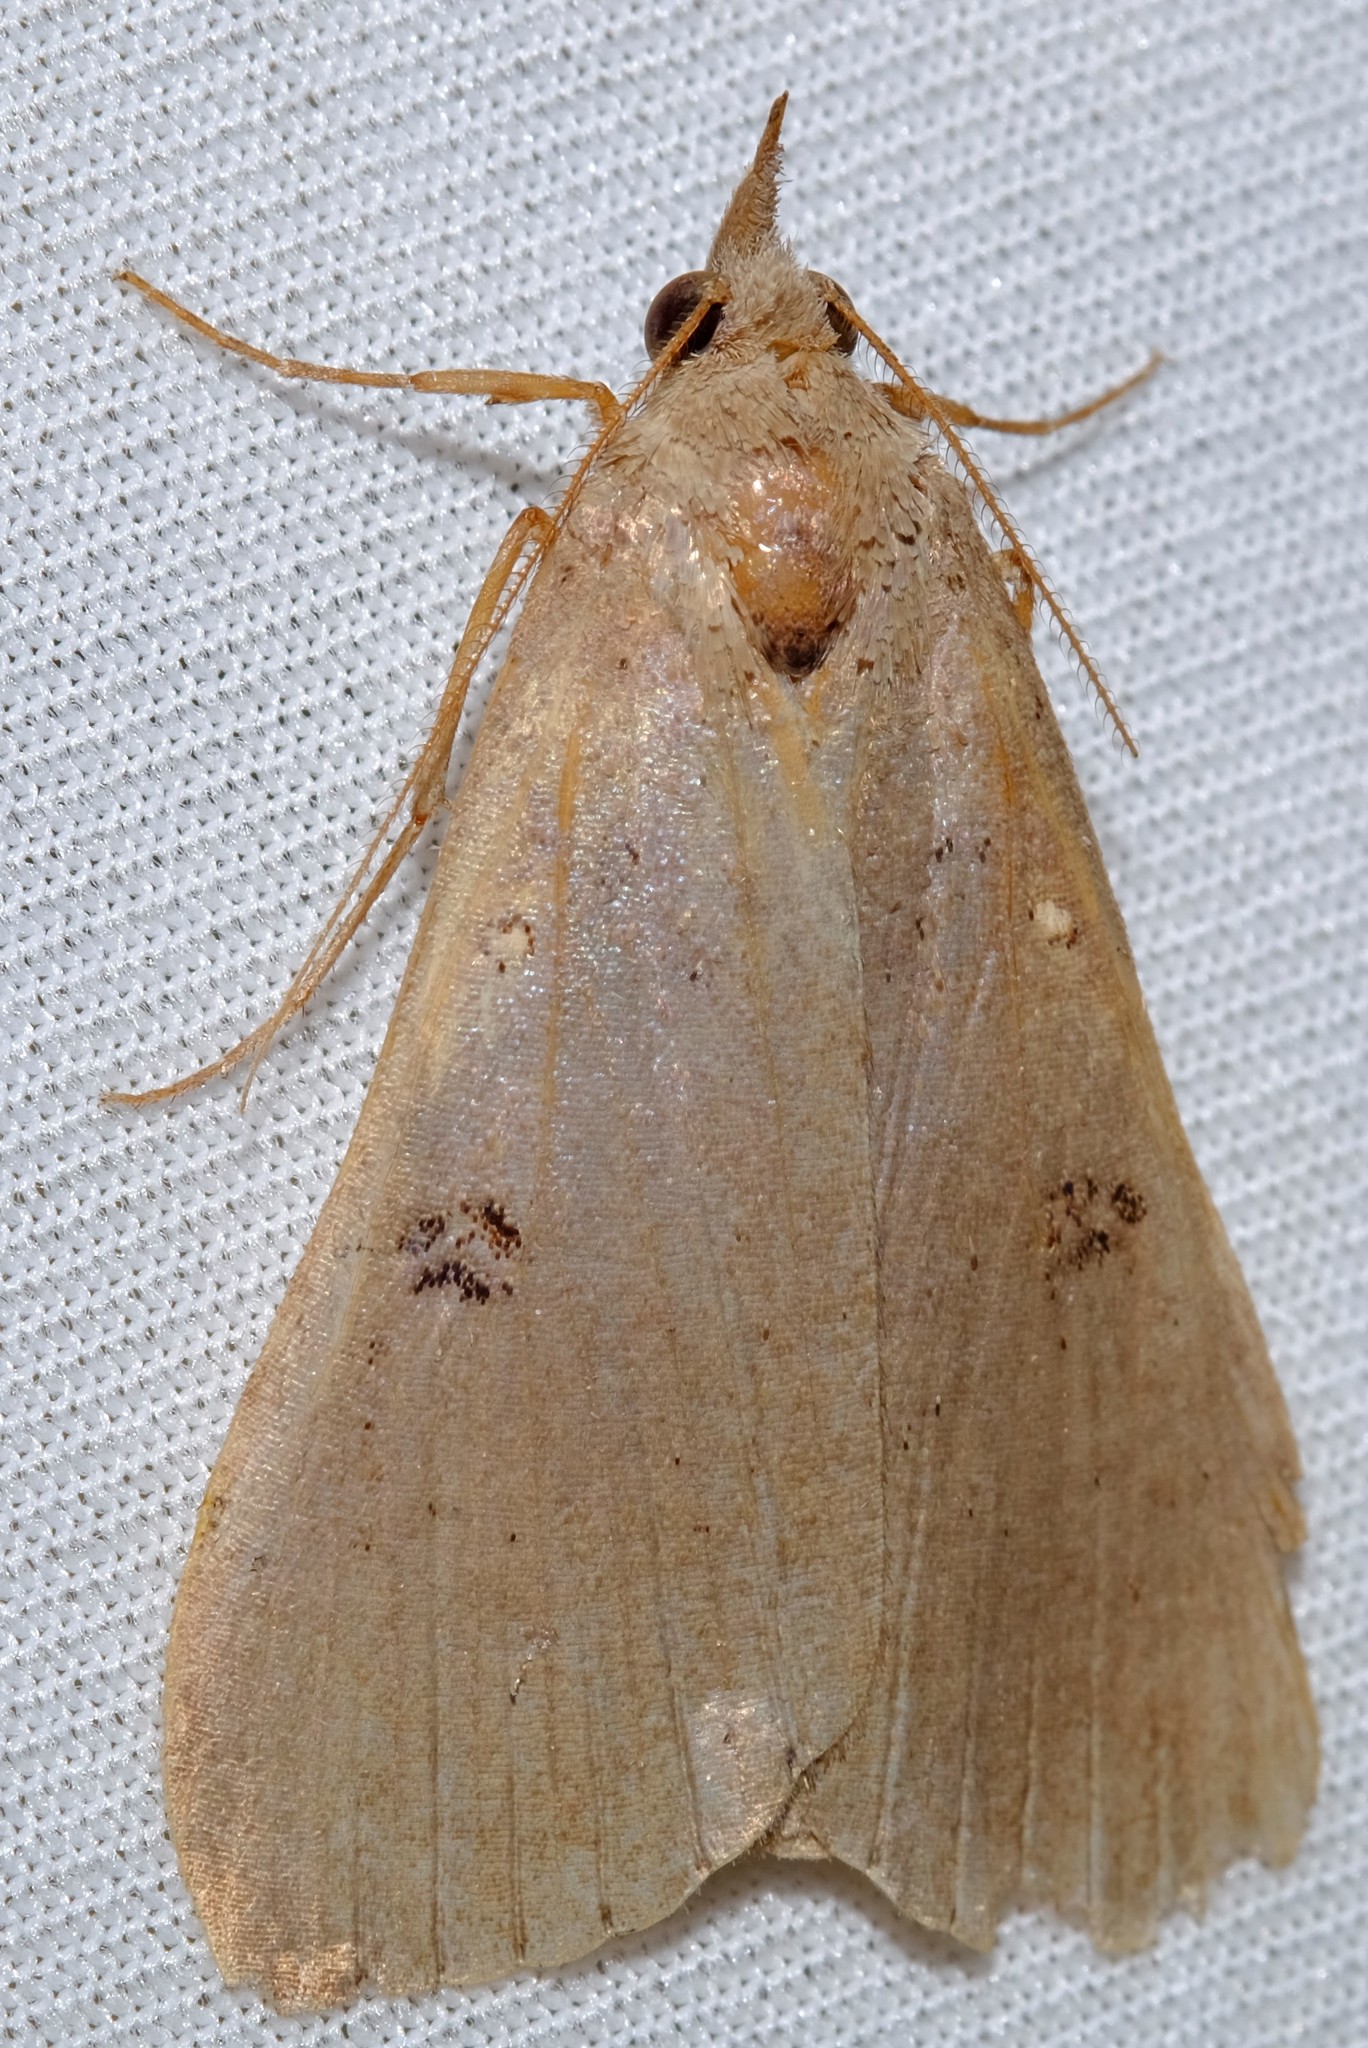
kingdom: Animalia
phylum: Arthropoda
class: Insecta
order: Lepidoptera
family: Erebidae
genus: Rhapsa
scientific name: Rhapsa suscitatalis
